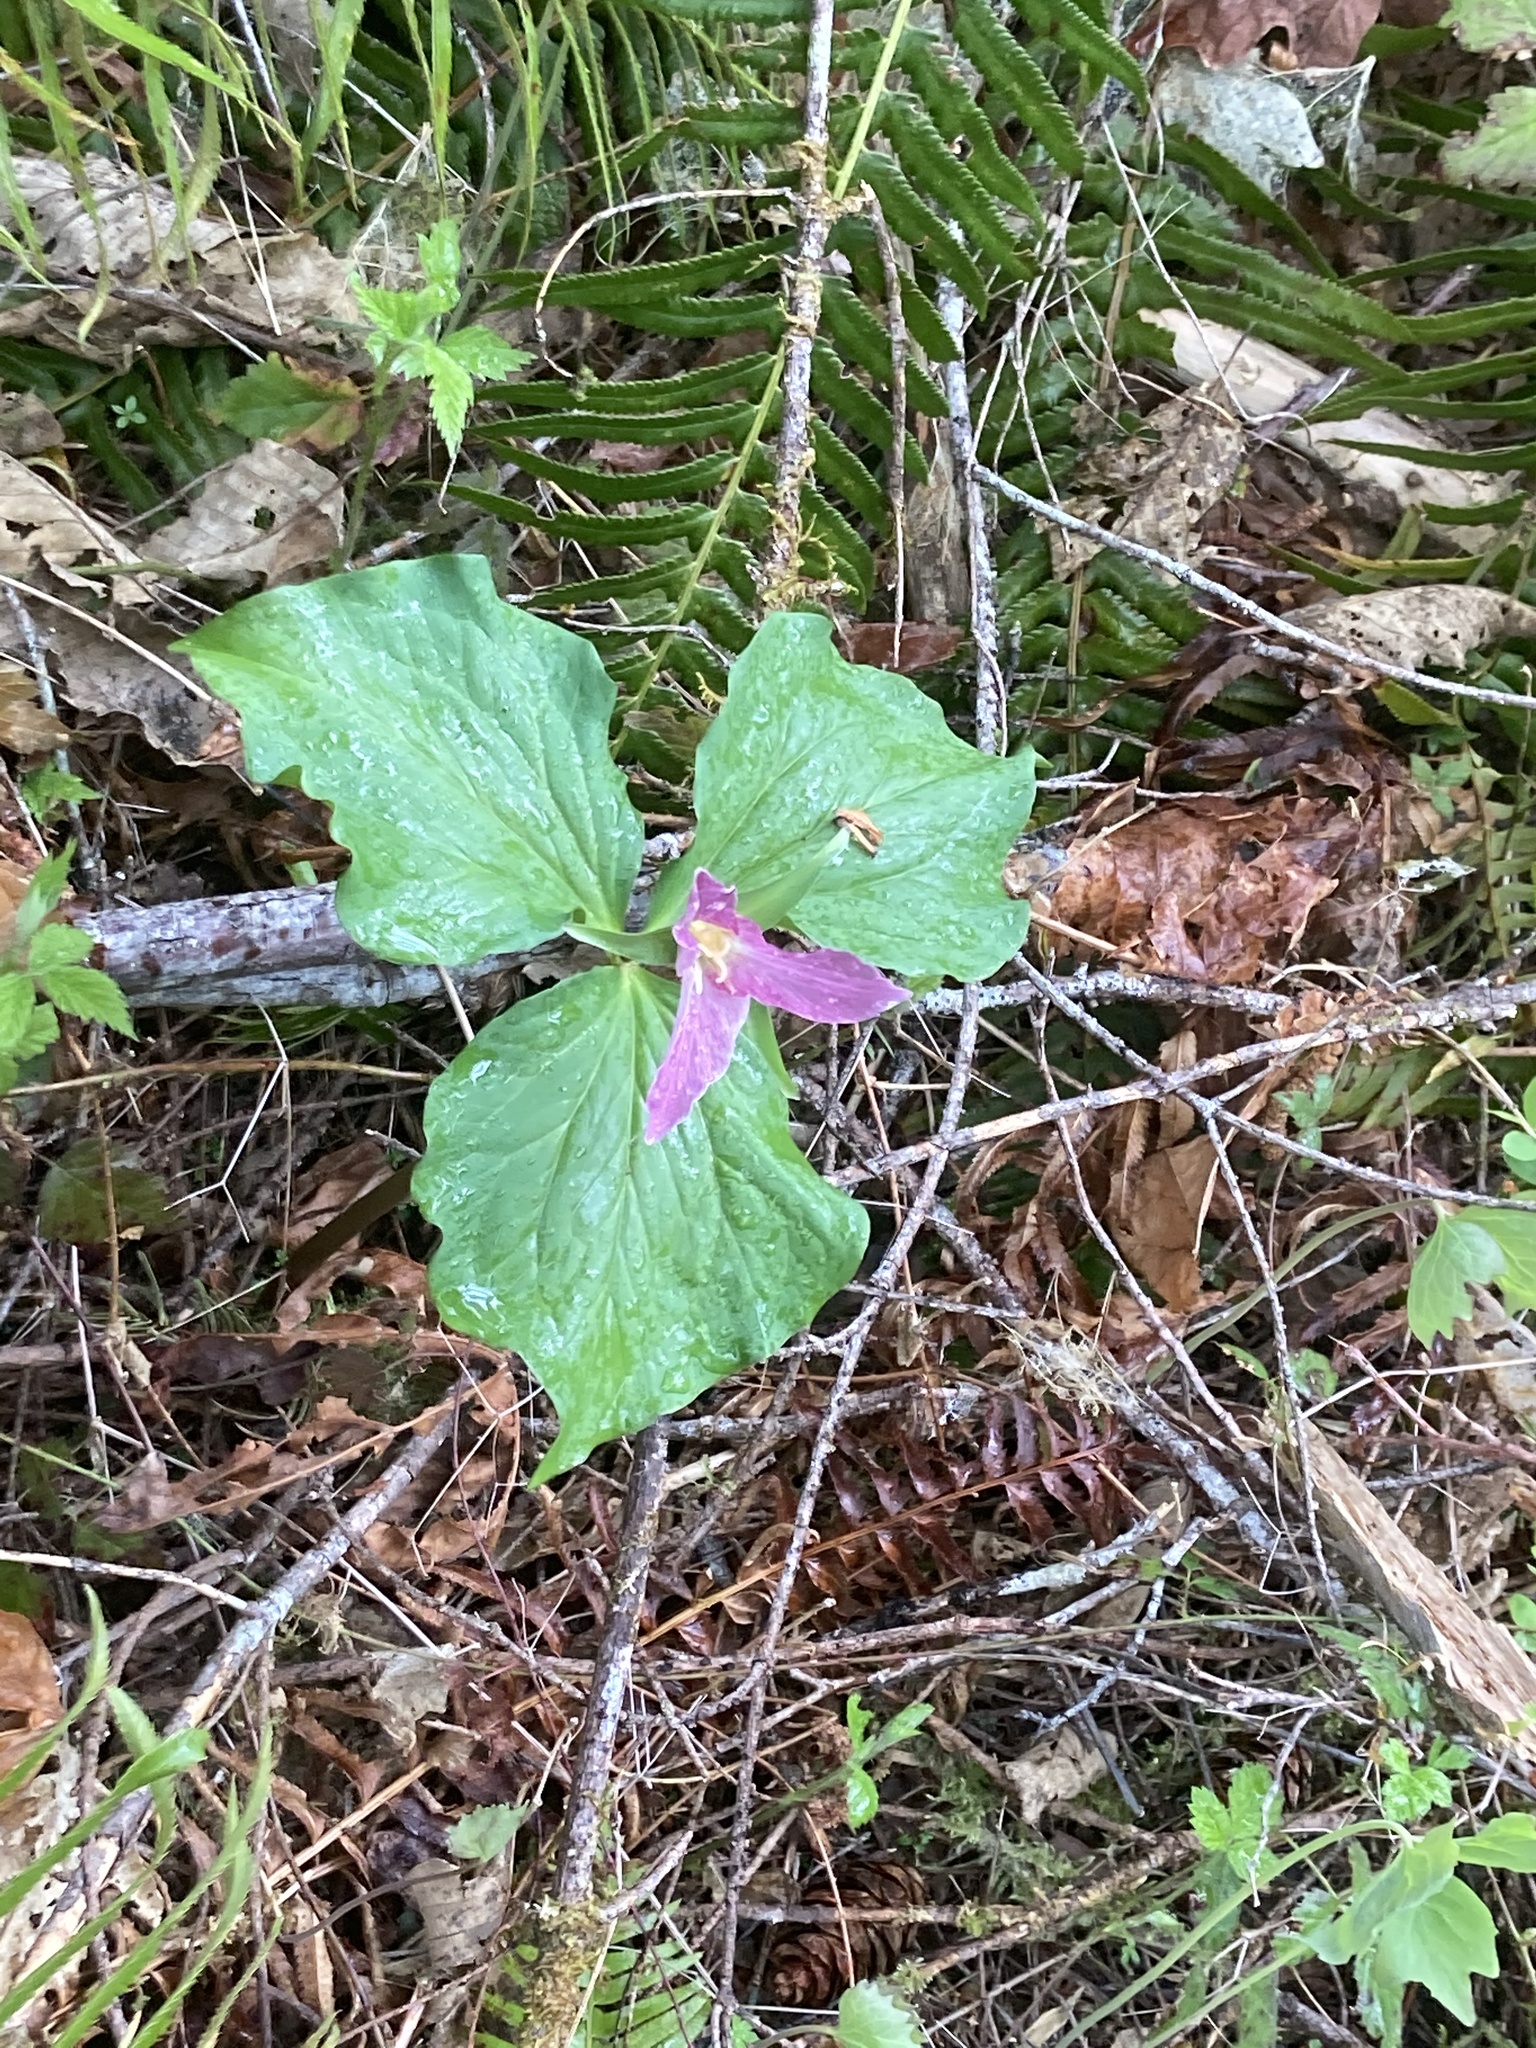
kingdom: Plantae
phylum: Tracheophyta
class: Liliopsida
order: Liliales
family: Melanthiaceae
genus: Trillium
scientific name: Trillium ovatum
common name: Pacific trillium
